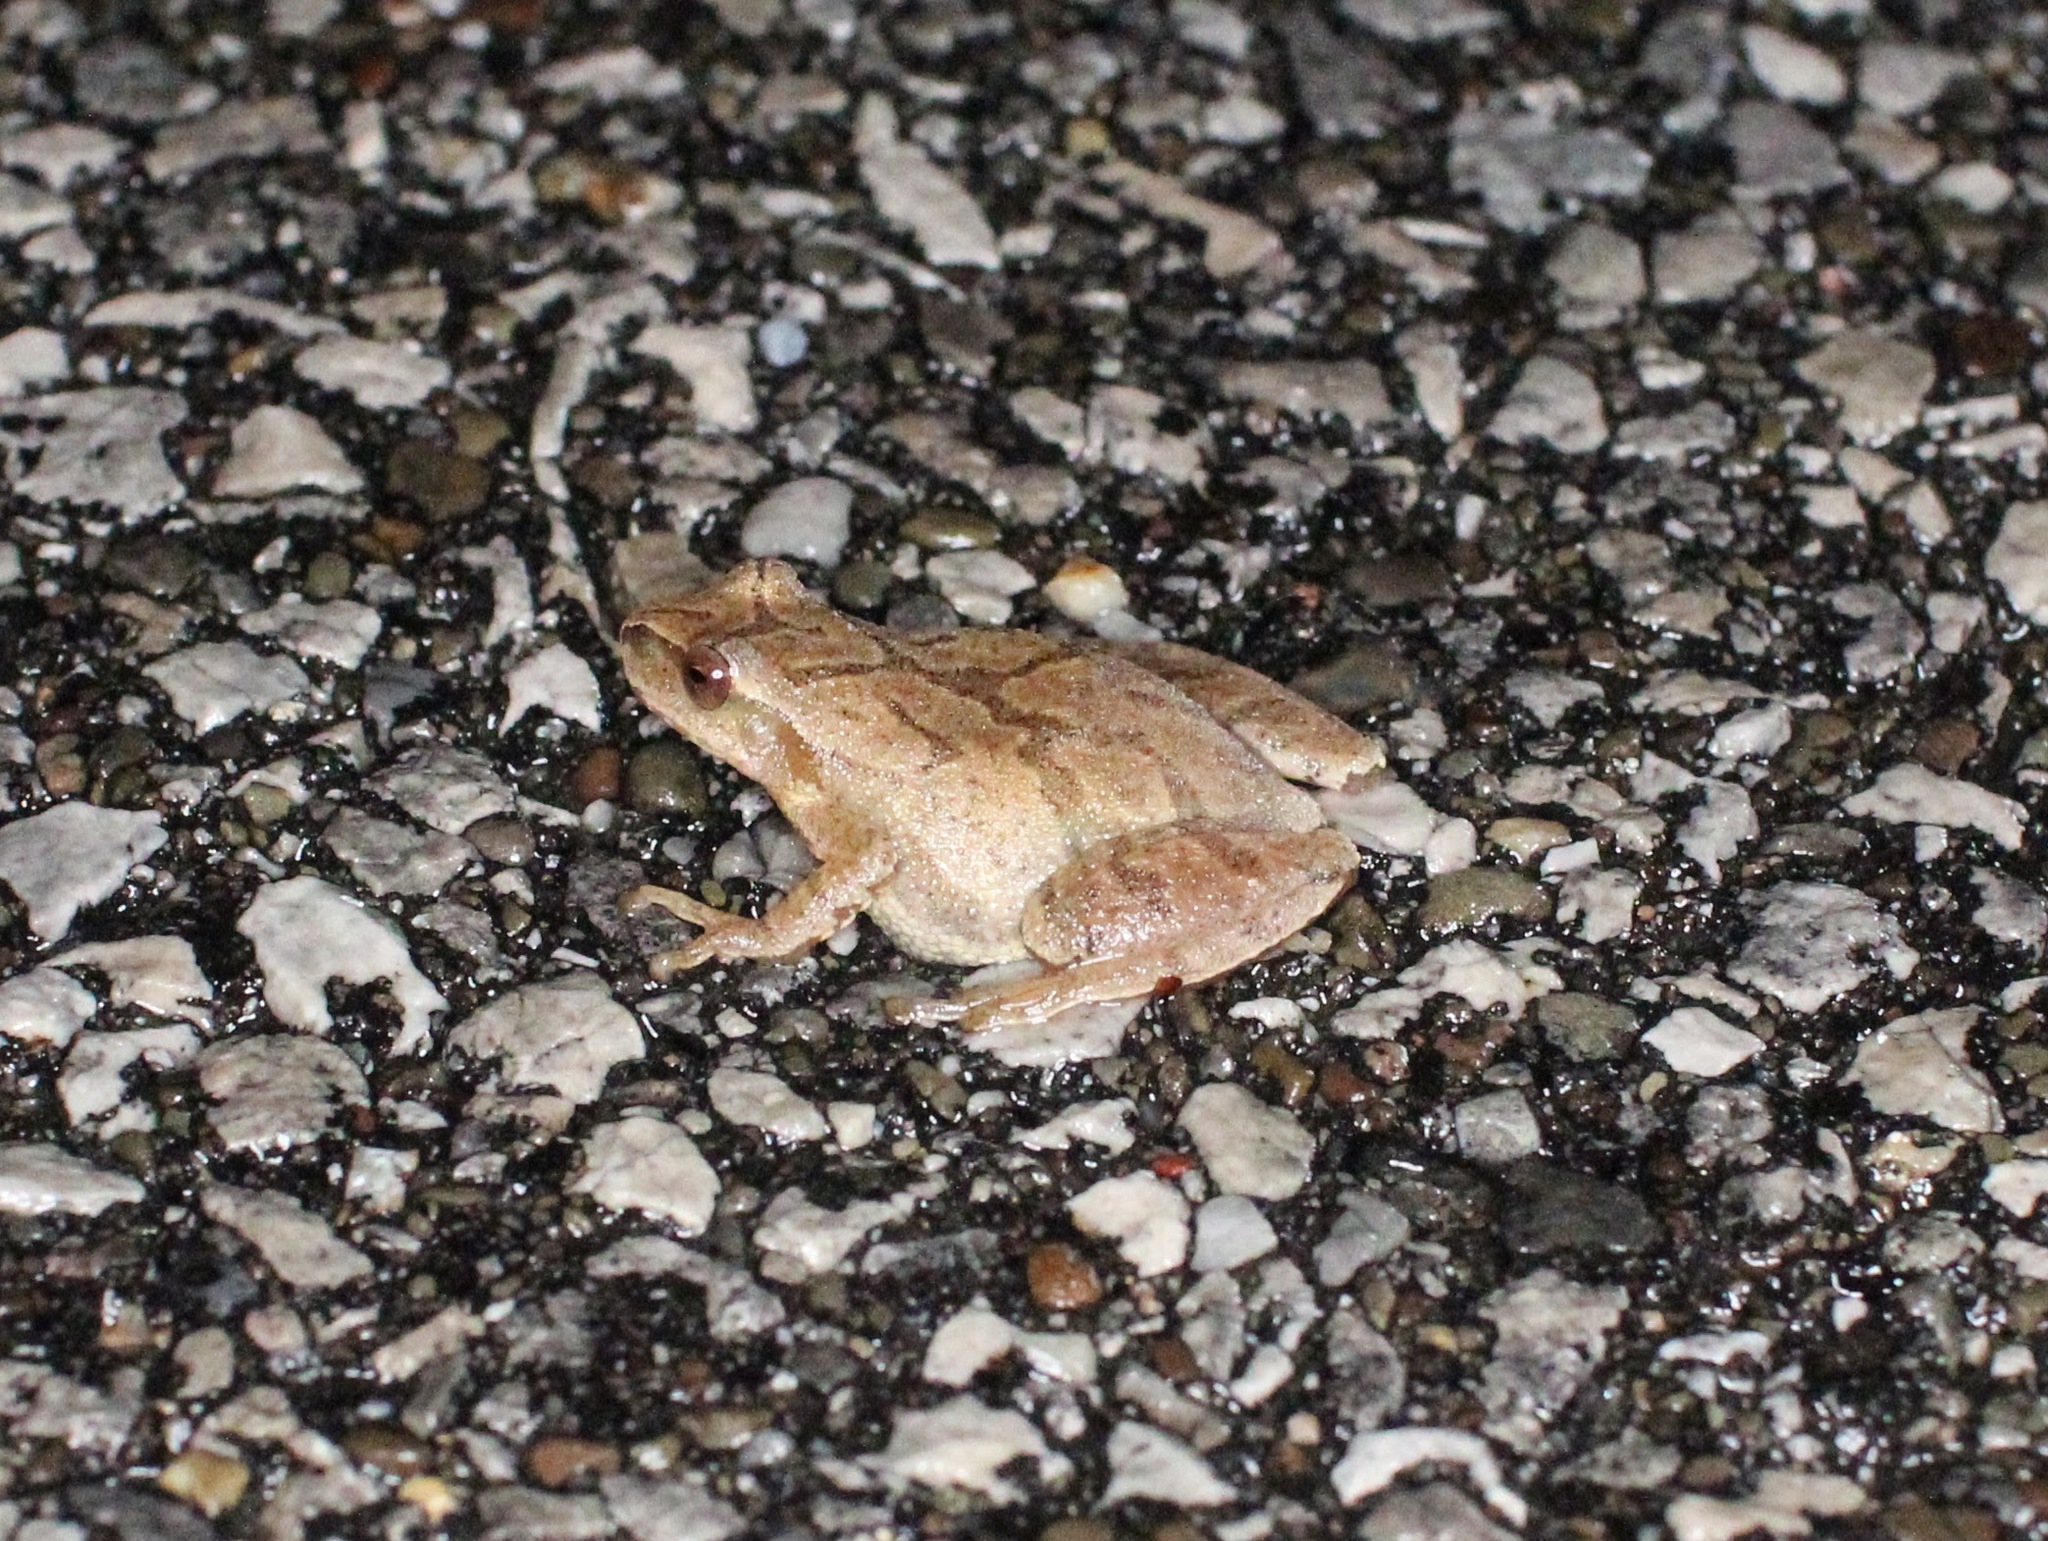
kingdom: Animalia
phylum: Chordata
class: Amphibia
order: Anura
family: Hylidae
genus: Pseudacris
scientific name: Pseudacris crucifer
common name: Spring peeper
